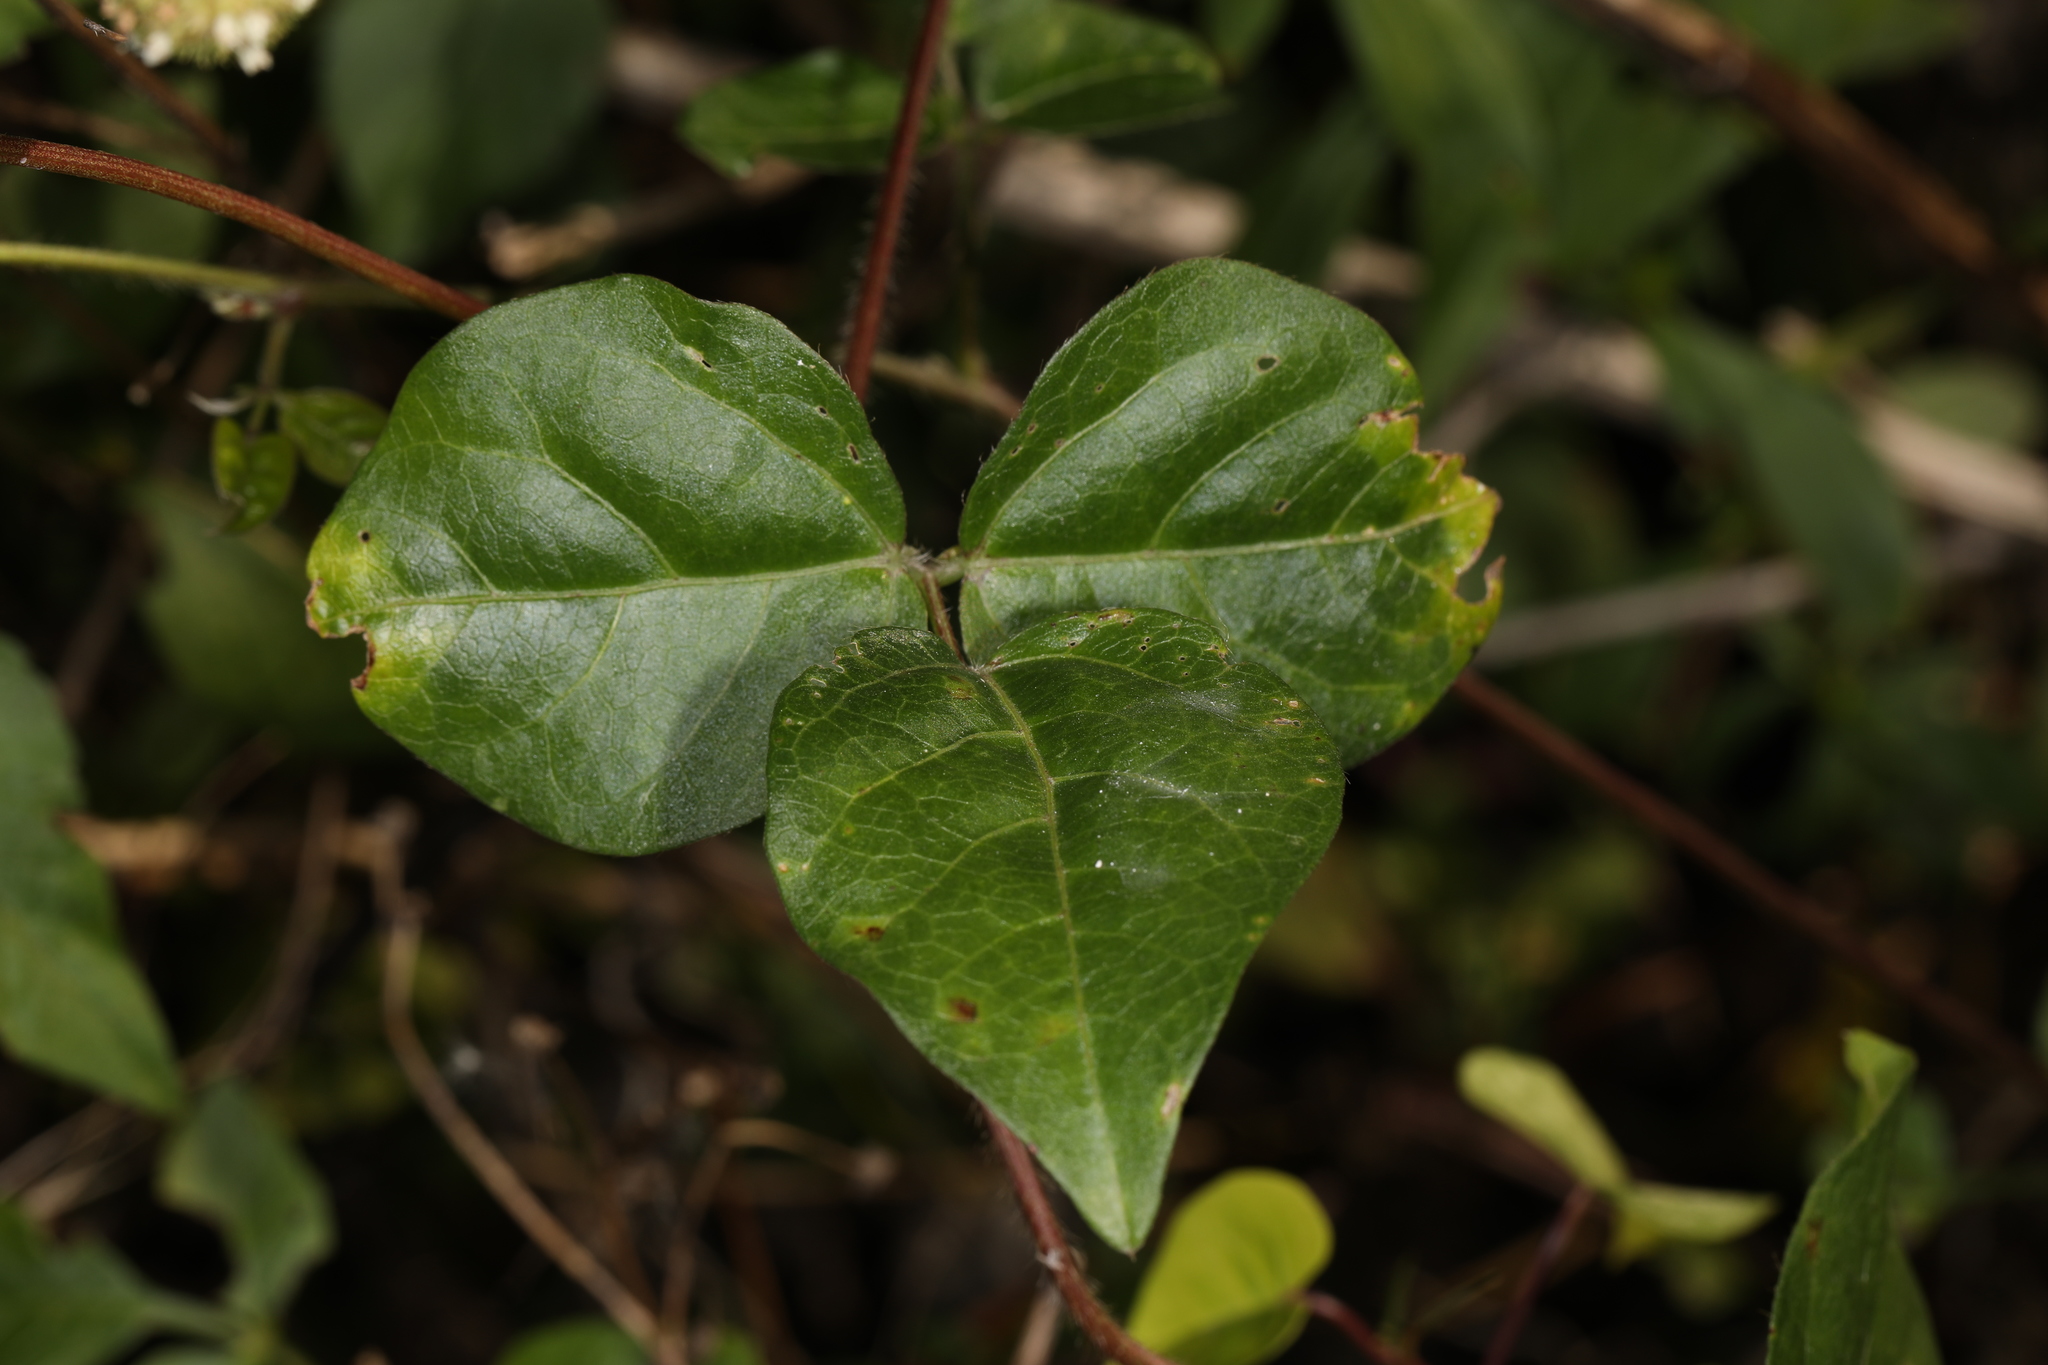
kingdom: Plantae
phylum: Tracheophyta
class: Magnoliopsida
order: Fabales
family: Fabaceae
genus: Vigna
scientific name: Vigna luteola
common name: Hairypod cowpea
